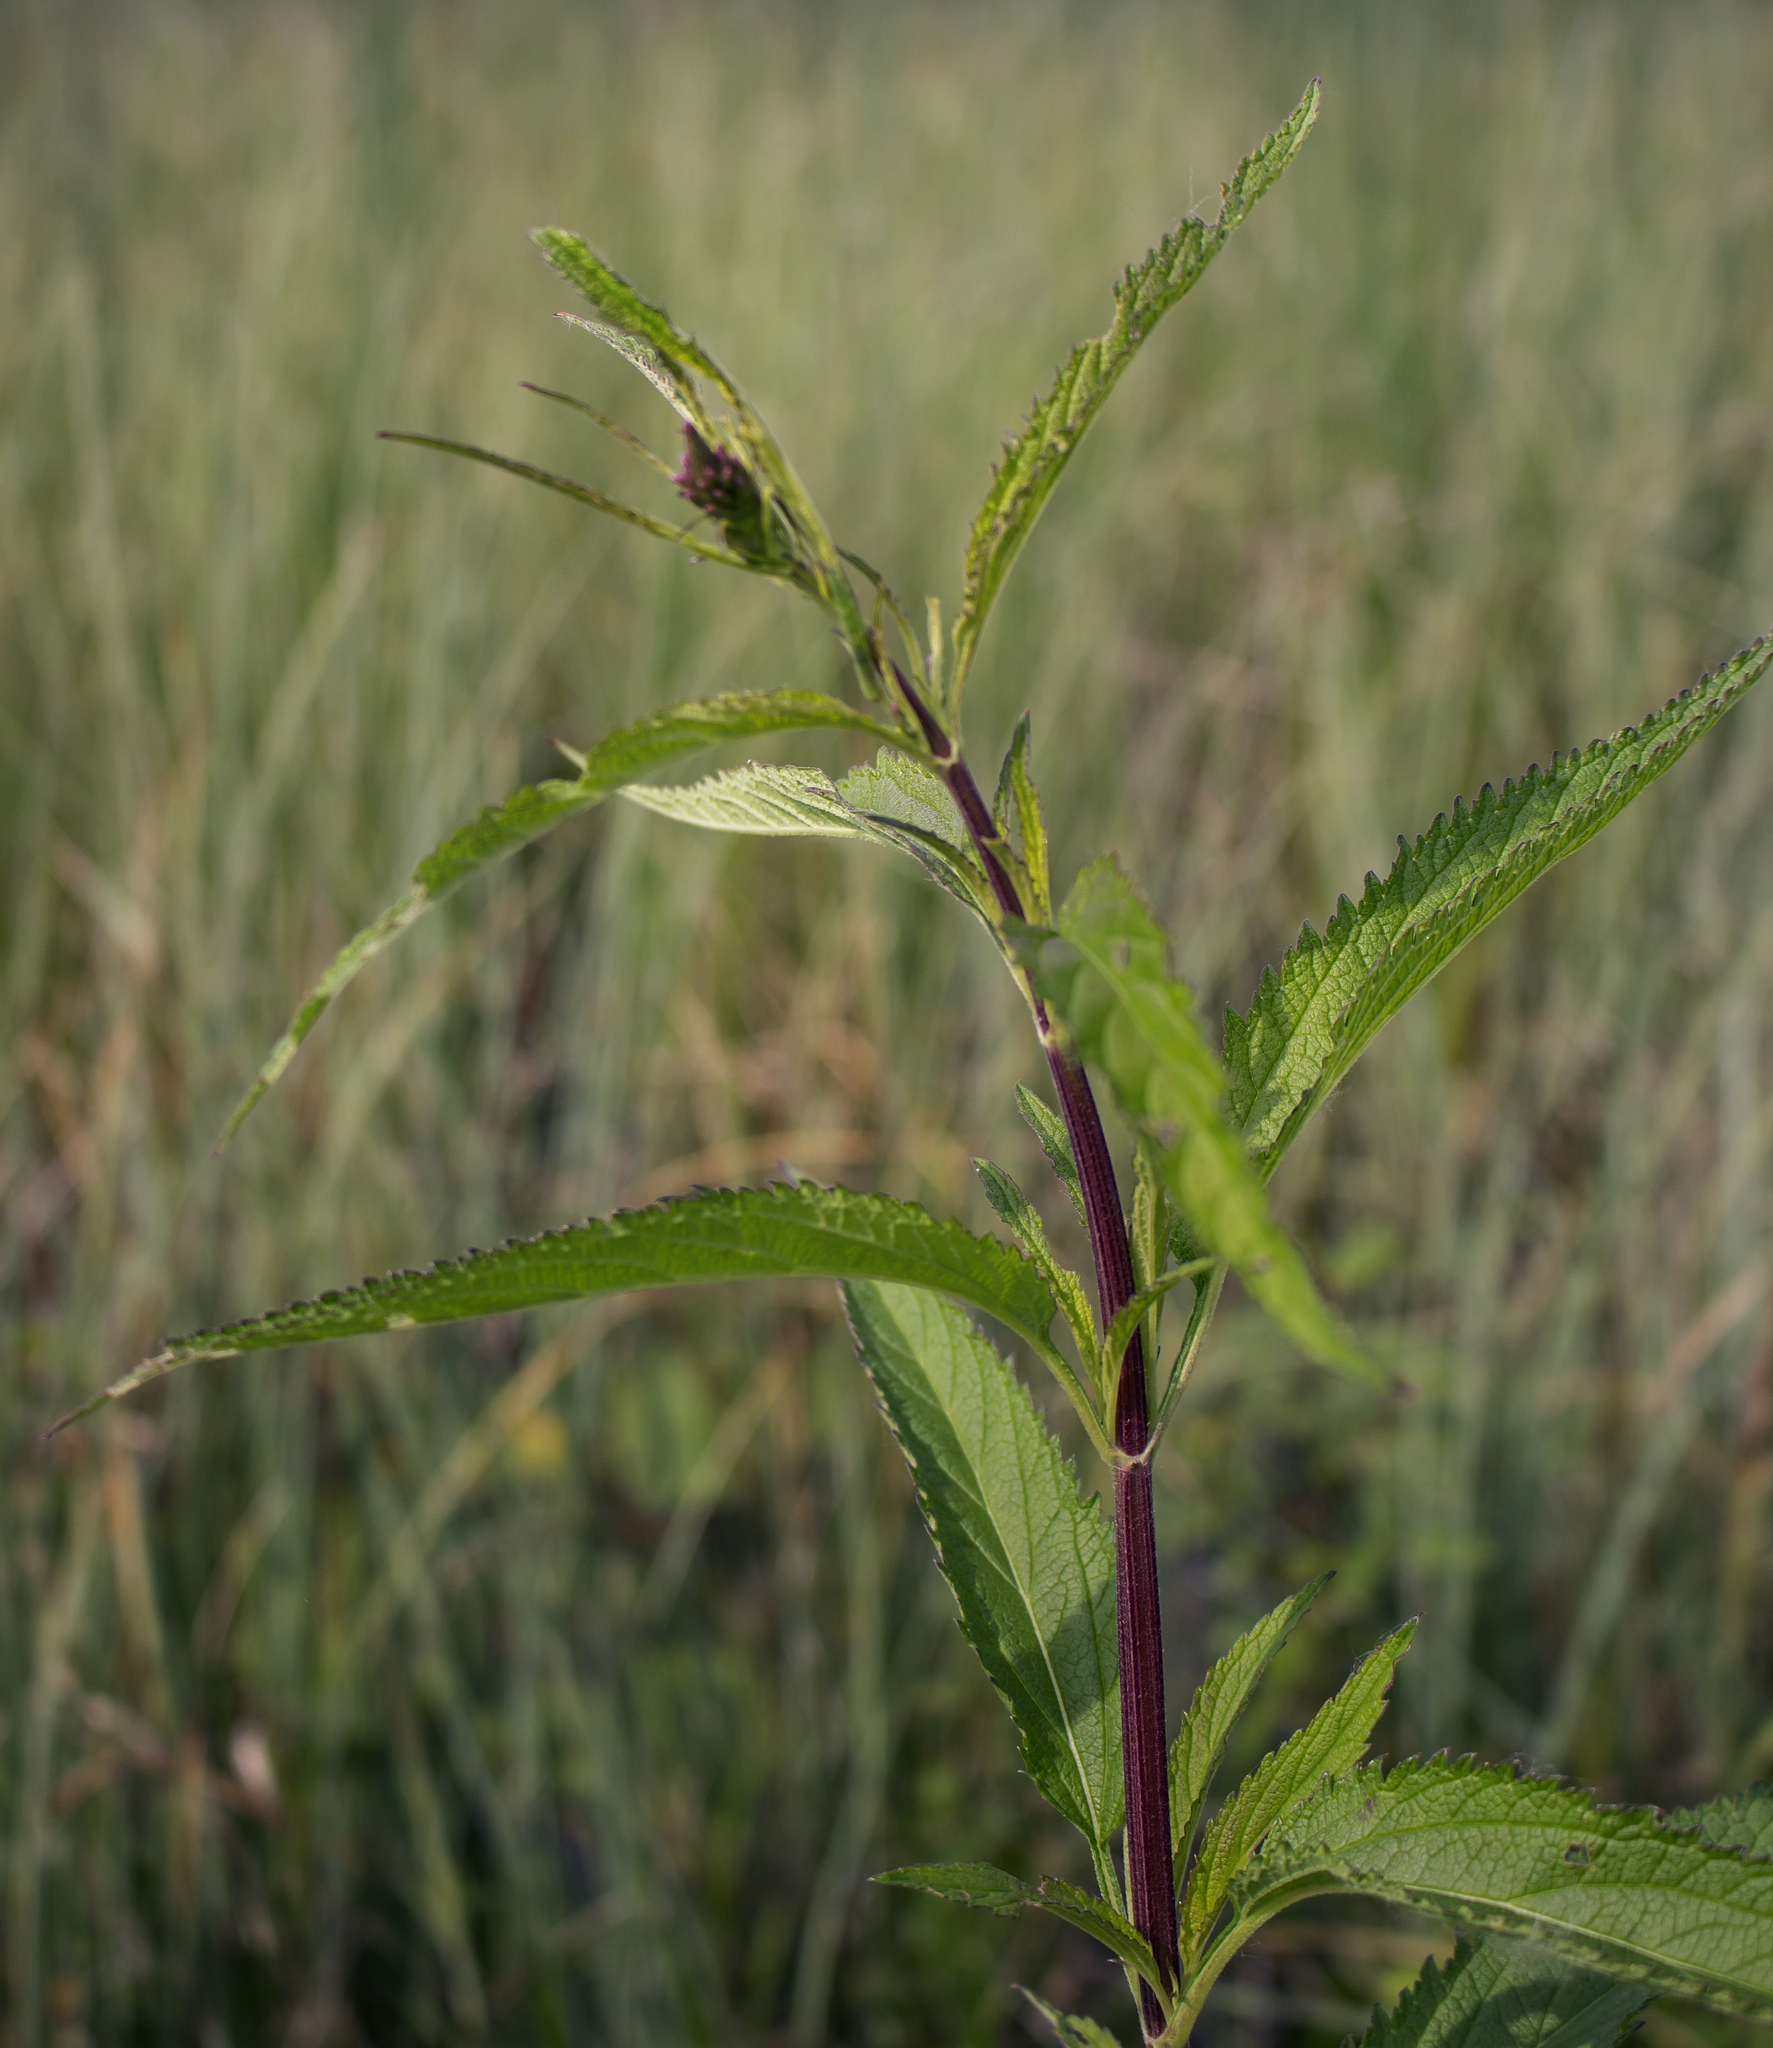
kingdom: Plantae
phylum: Tracheophyta
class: Magnoliopsida
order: Lamiales
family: Verbenaceae
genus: Verbena
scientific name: Verbena hastata
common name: American blue vervain
